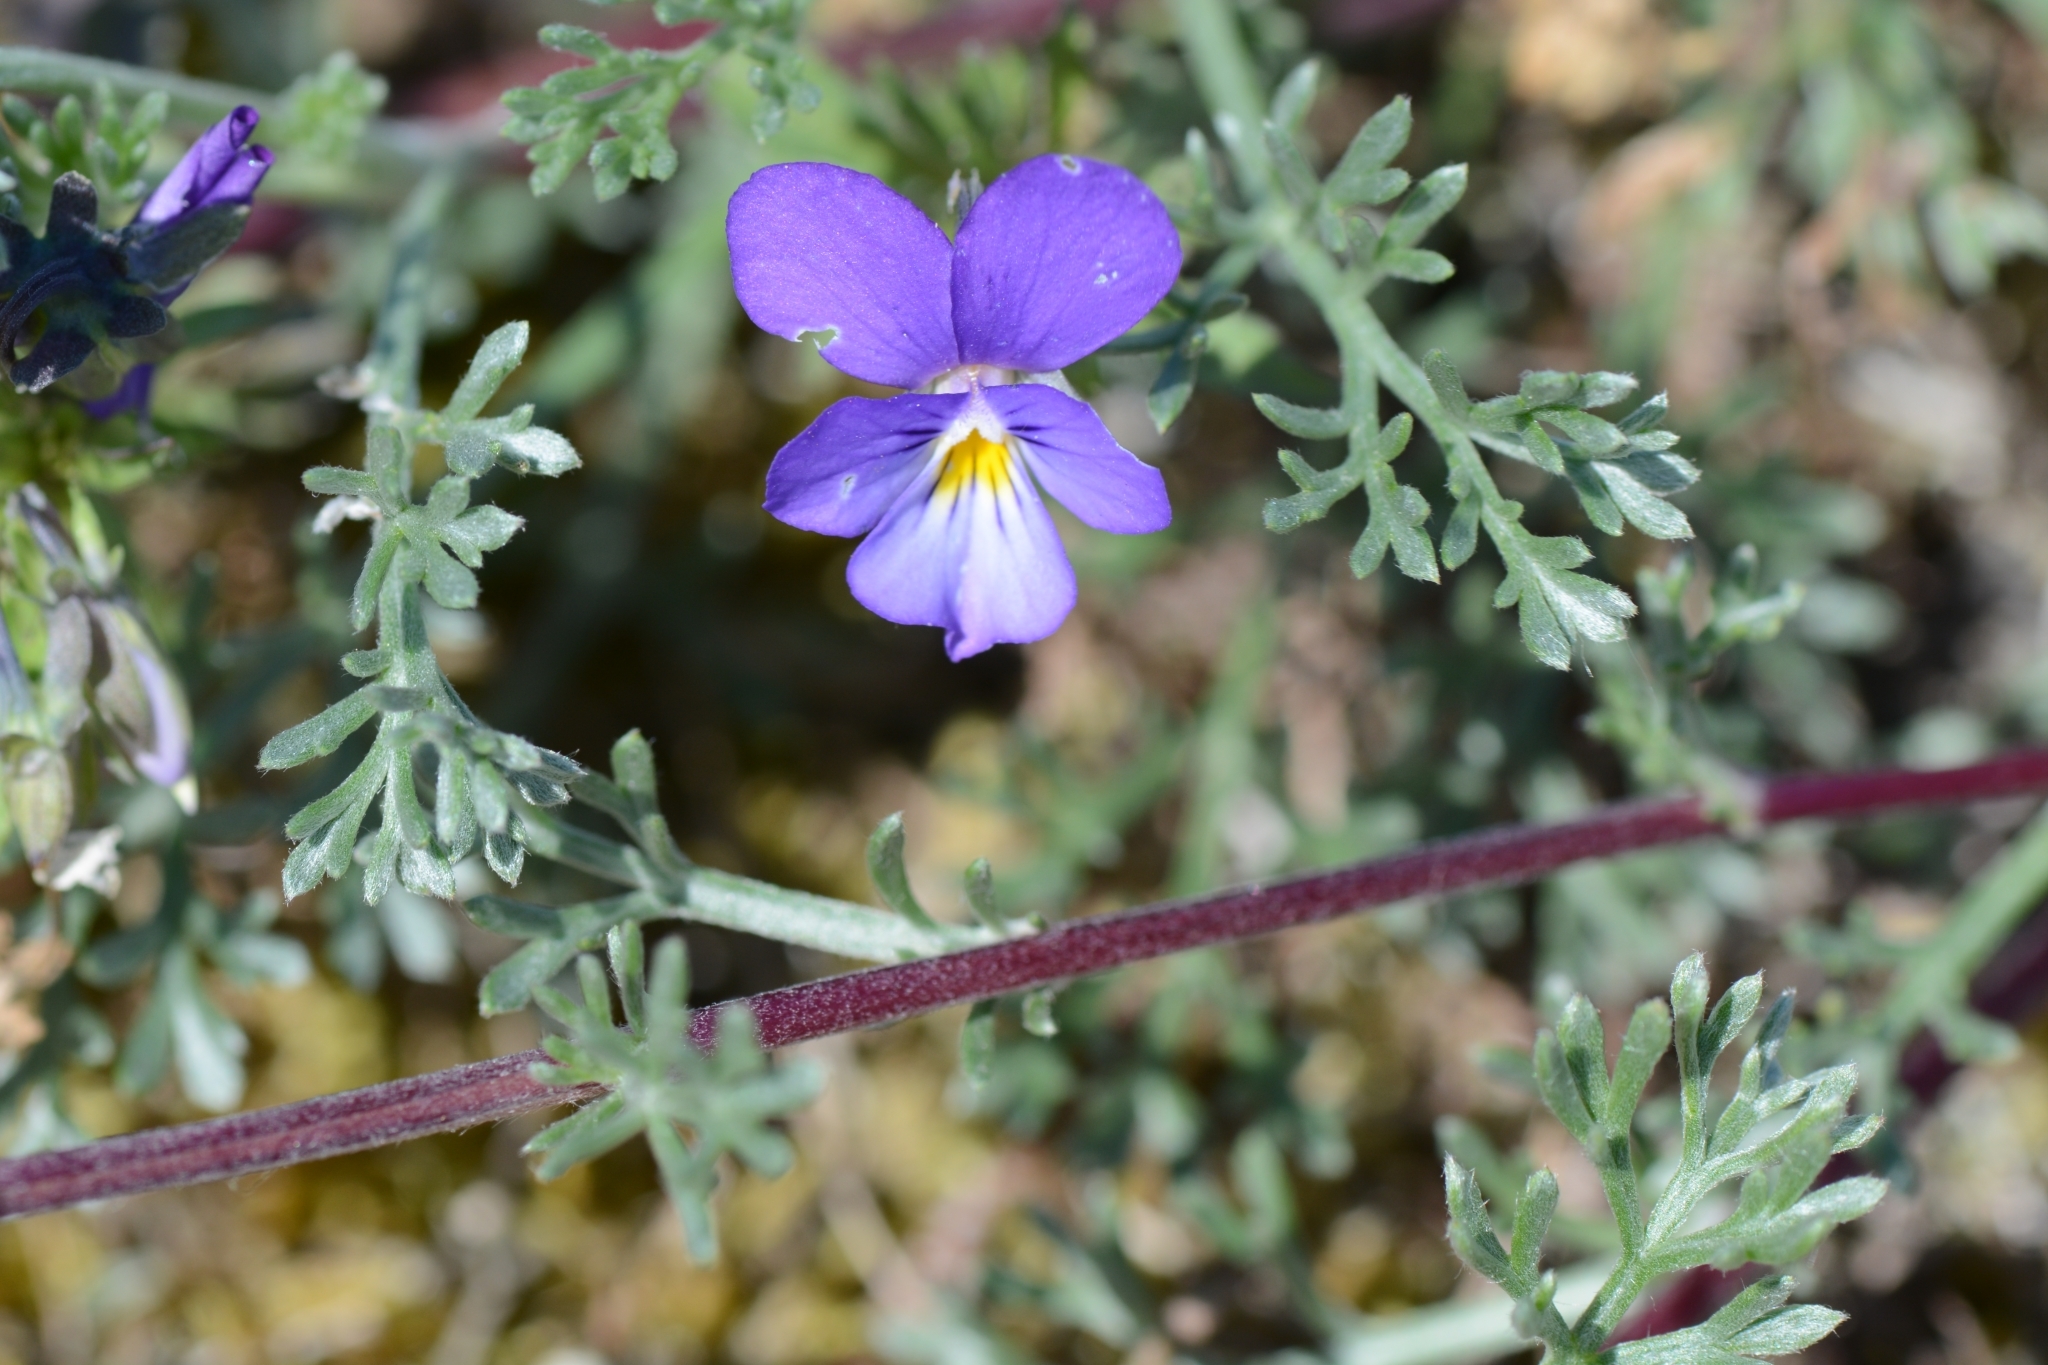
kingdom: Plantae
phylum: Tracheophyta
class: Magnoliopsida
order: Malpighiales
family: Violaceae
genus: Viola
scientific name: Viola tricolor
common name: Pansy
